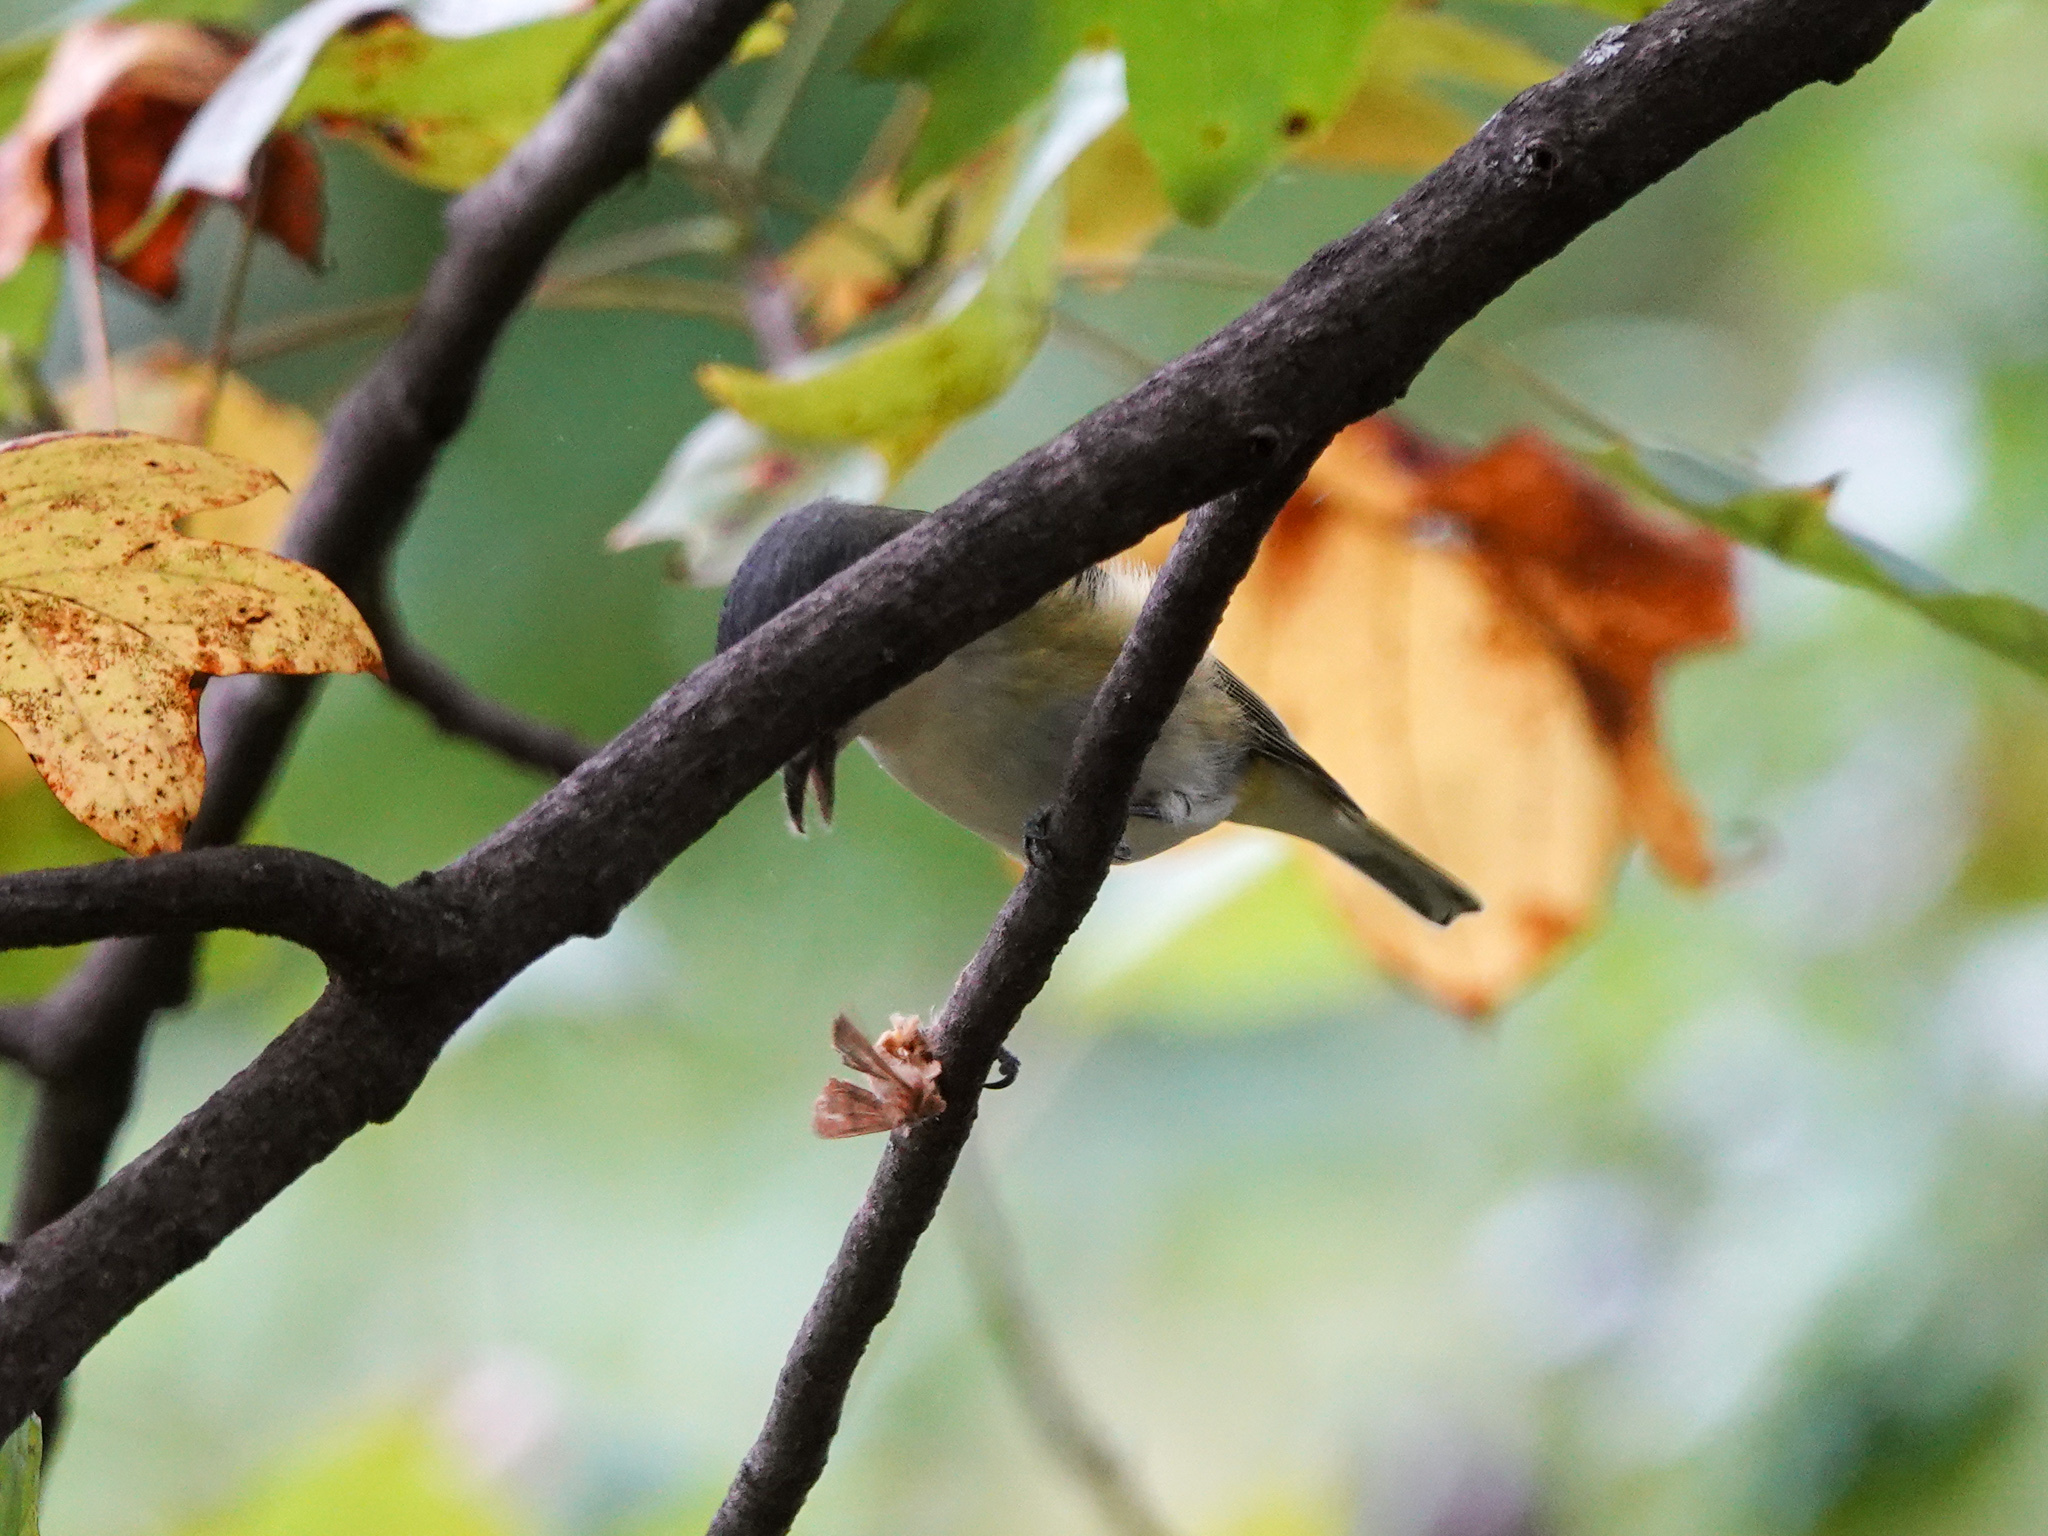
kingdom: Animalia
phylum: Chordata
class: Aves
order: Passeriformes
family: Vireonidae
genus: Vireo
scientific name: Vireo solitarius
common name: Blue-headed vireo
